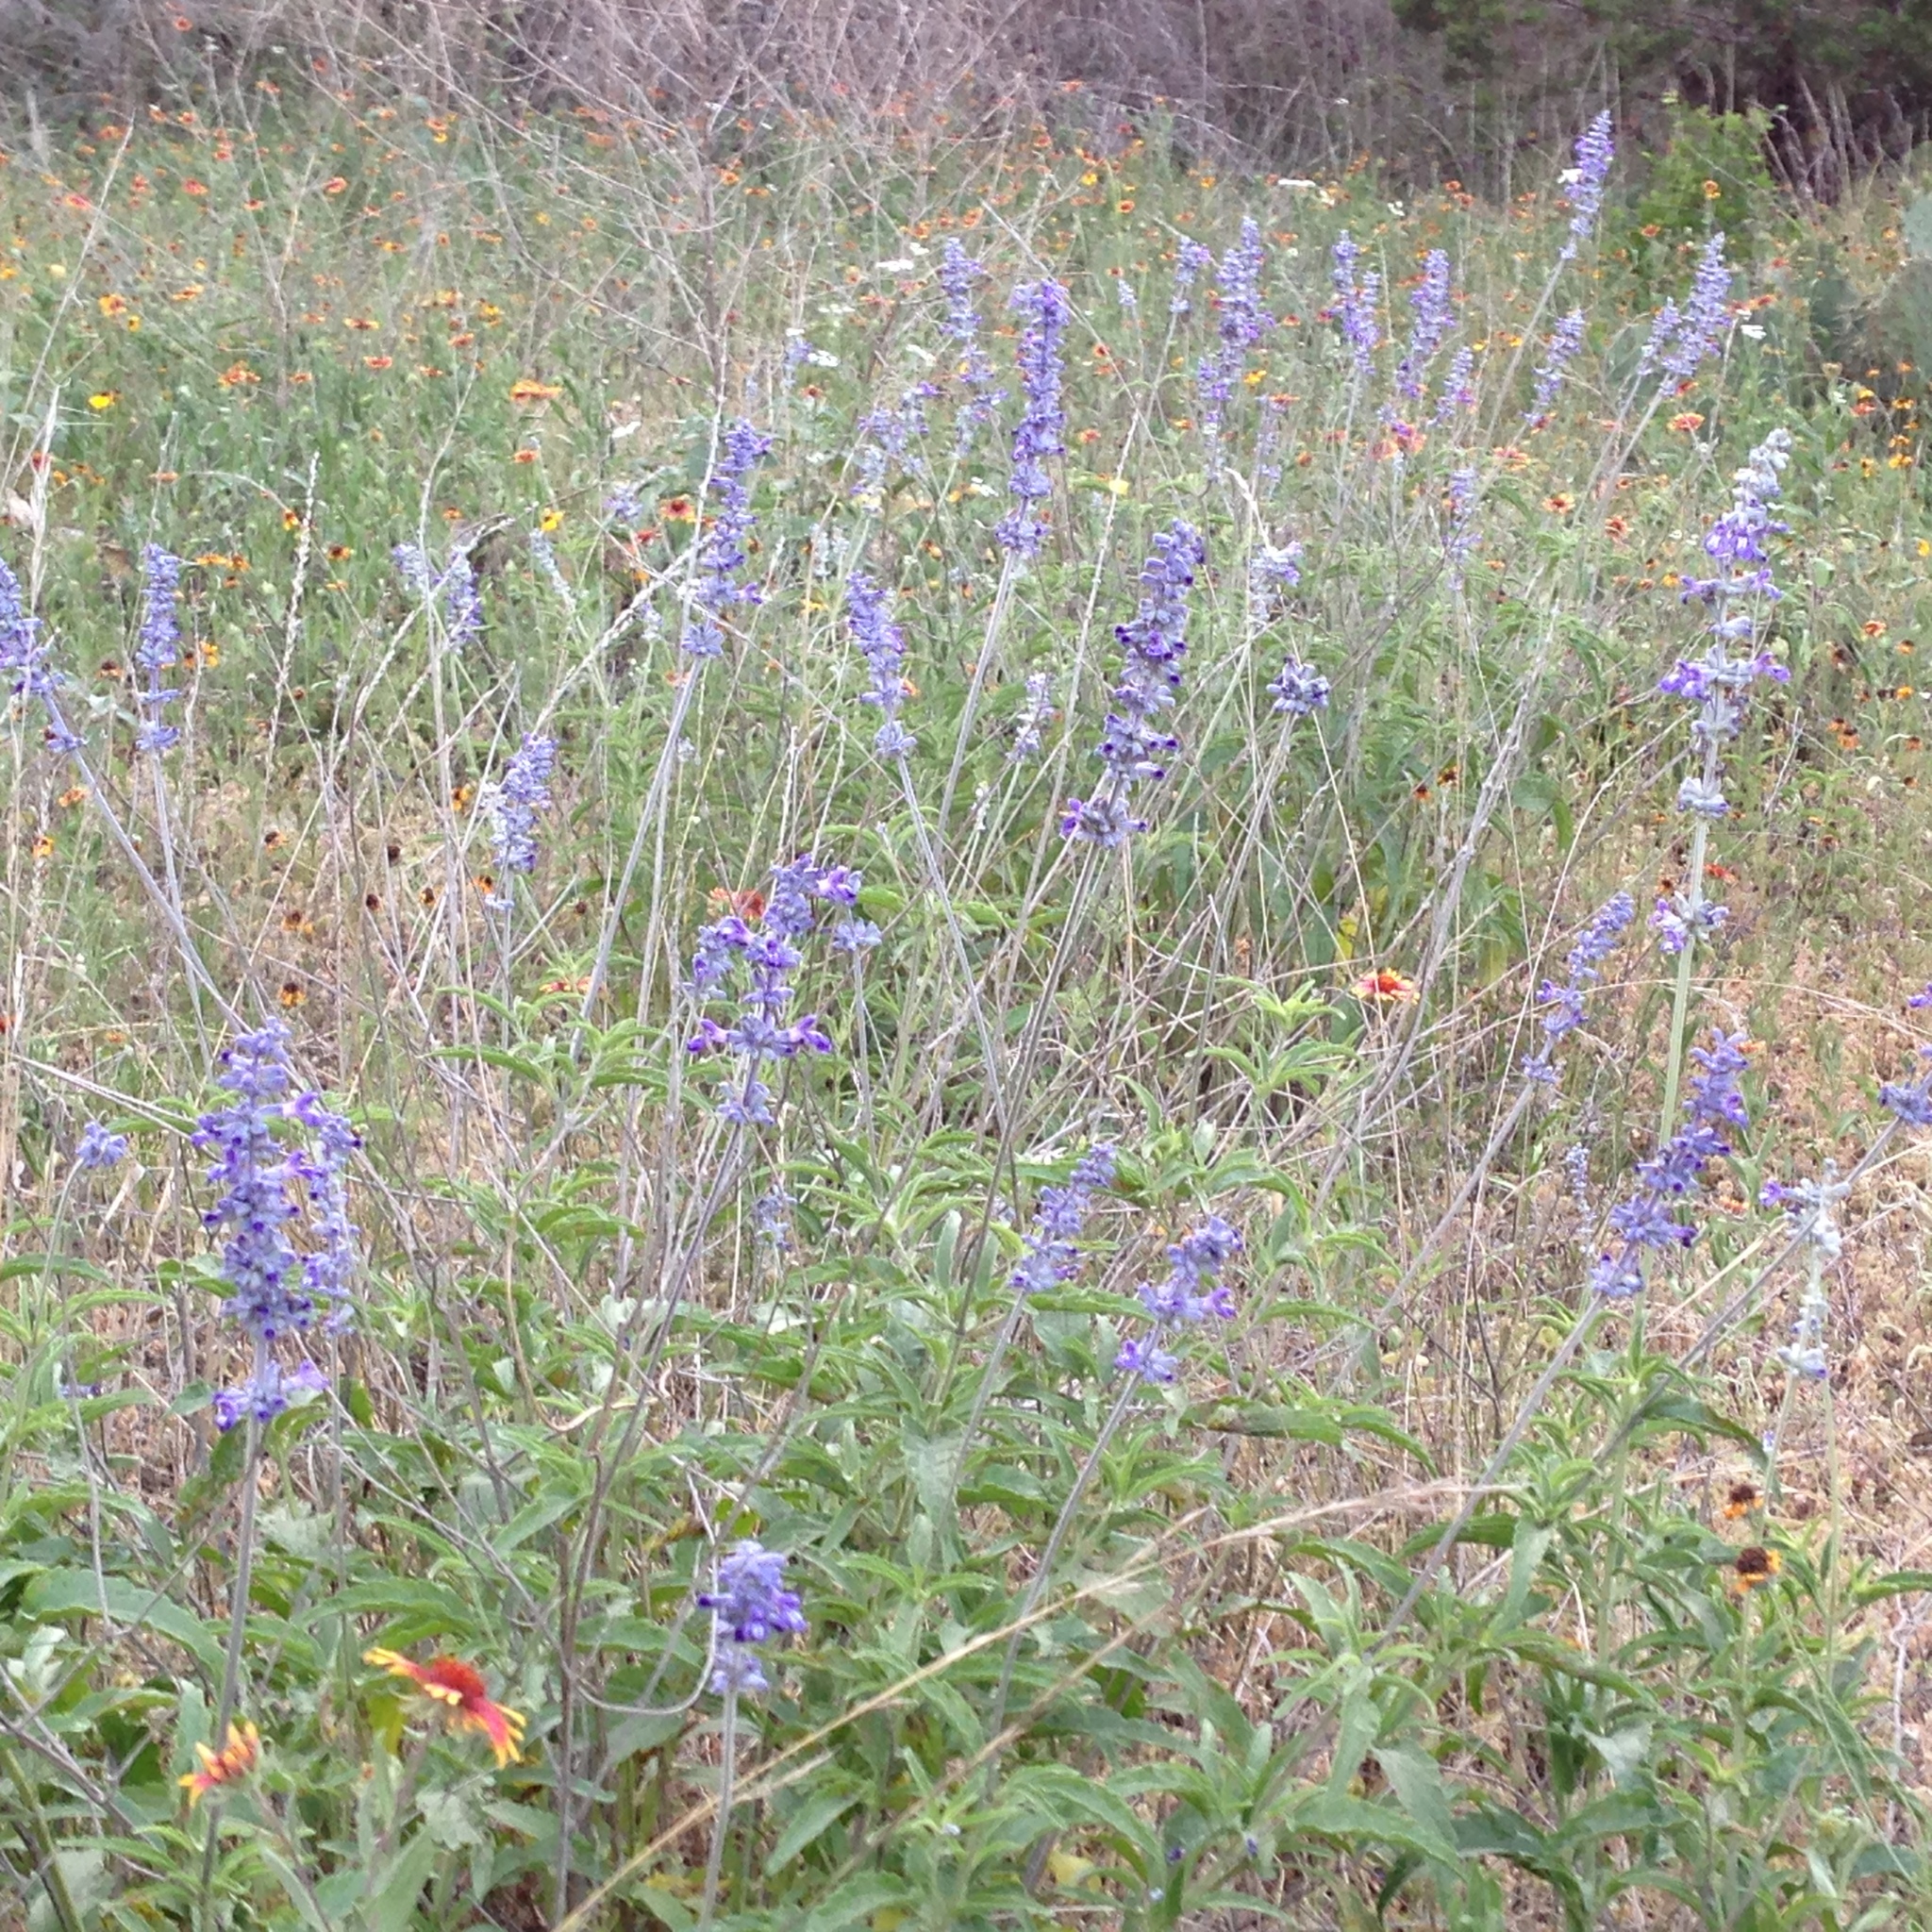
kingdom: Plantae
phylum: Tracheophyta
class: Magnoliopsida
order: Lamiales
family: Lamiaceae
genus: Salvia
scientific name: Salvia farinacea
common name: Mealy sage
